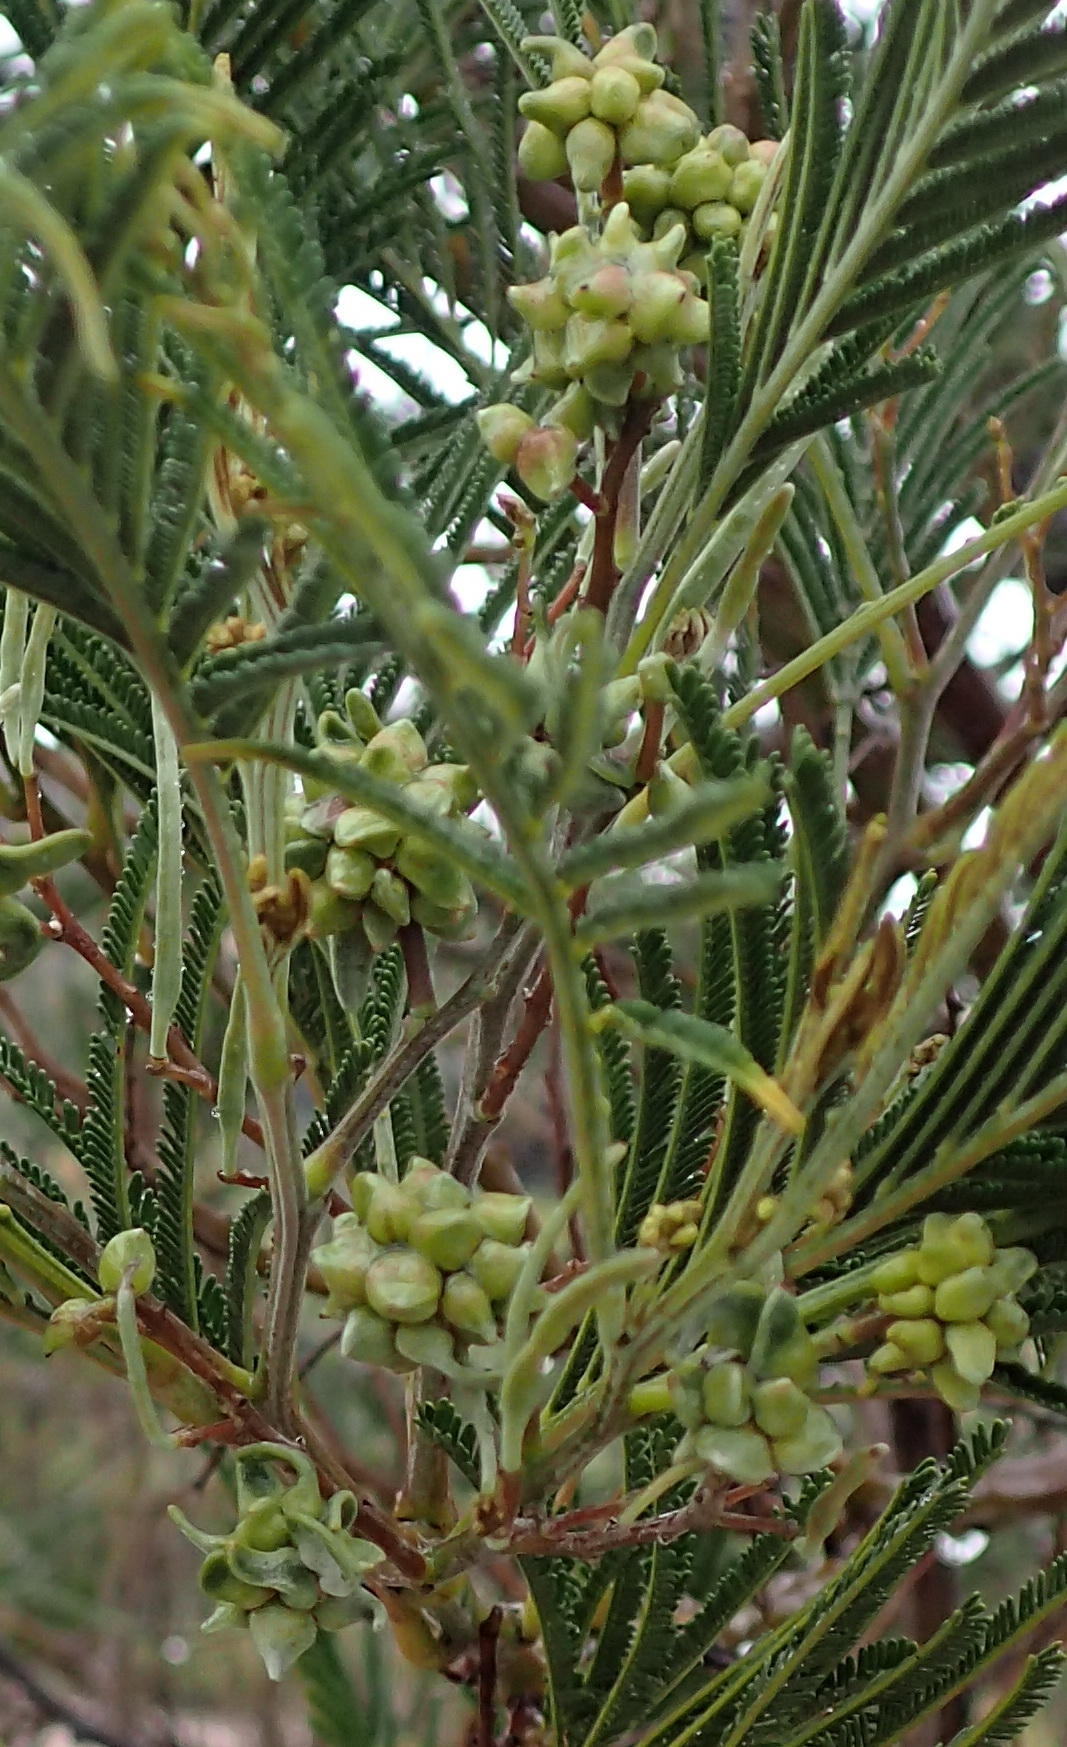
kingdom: Animalia
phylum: Arthropoda
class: Insecta
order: Diptera
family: Cecidomyiidae
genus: Dasineura
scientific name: Dasineura rubiformis
